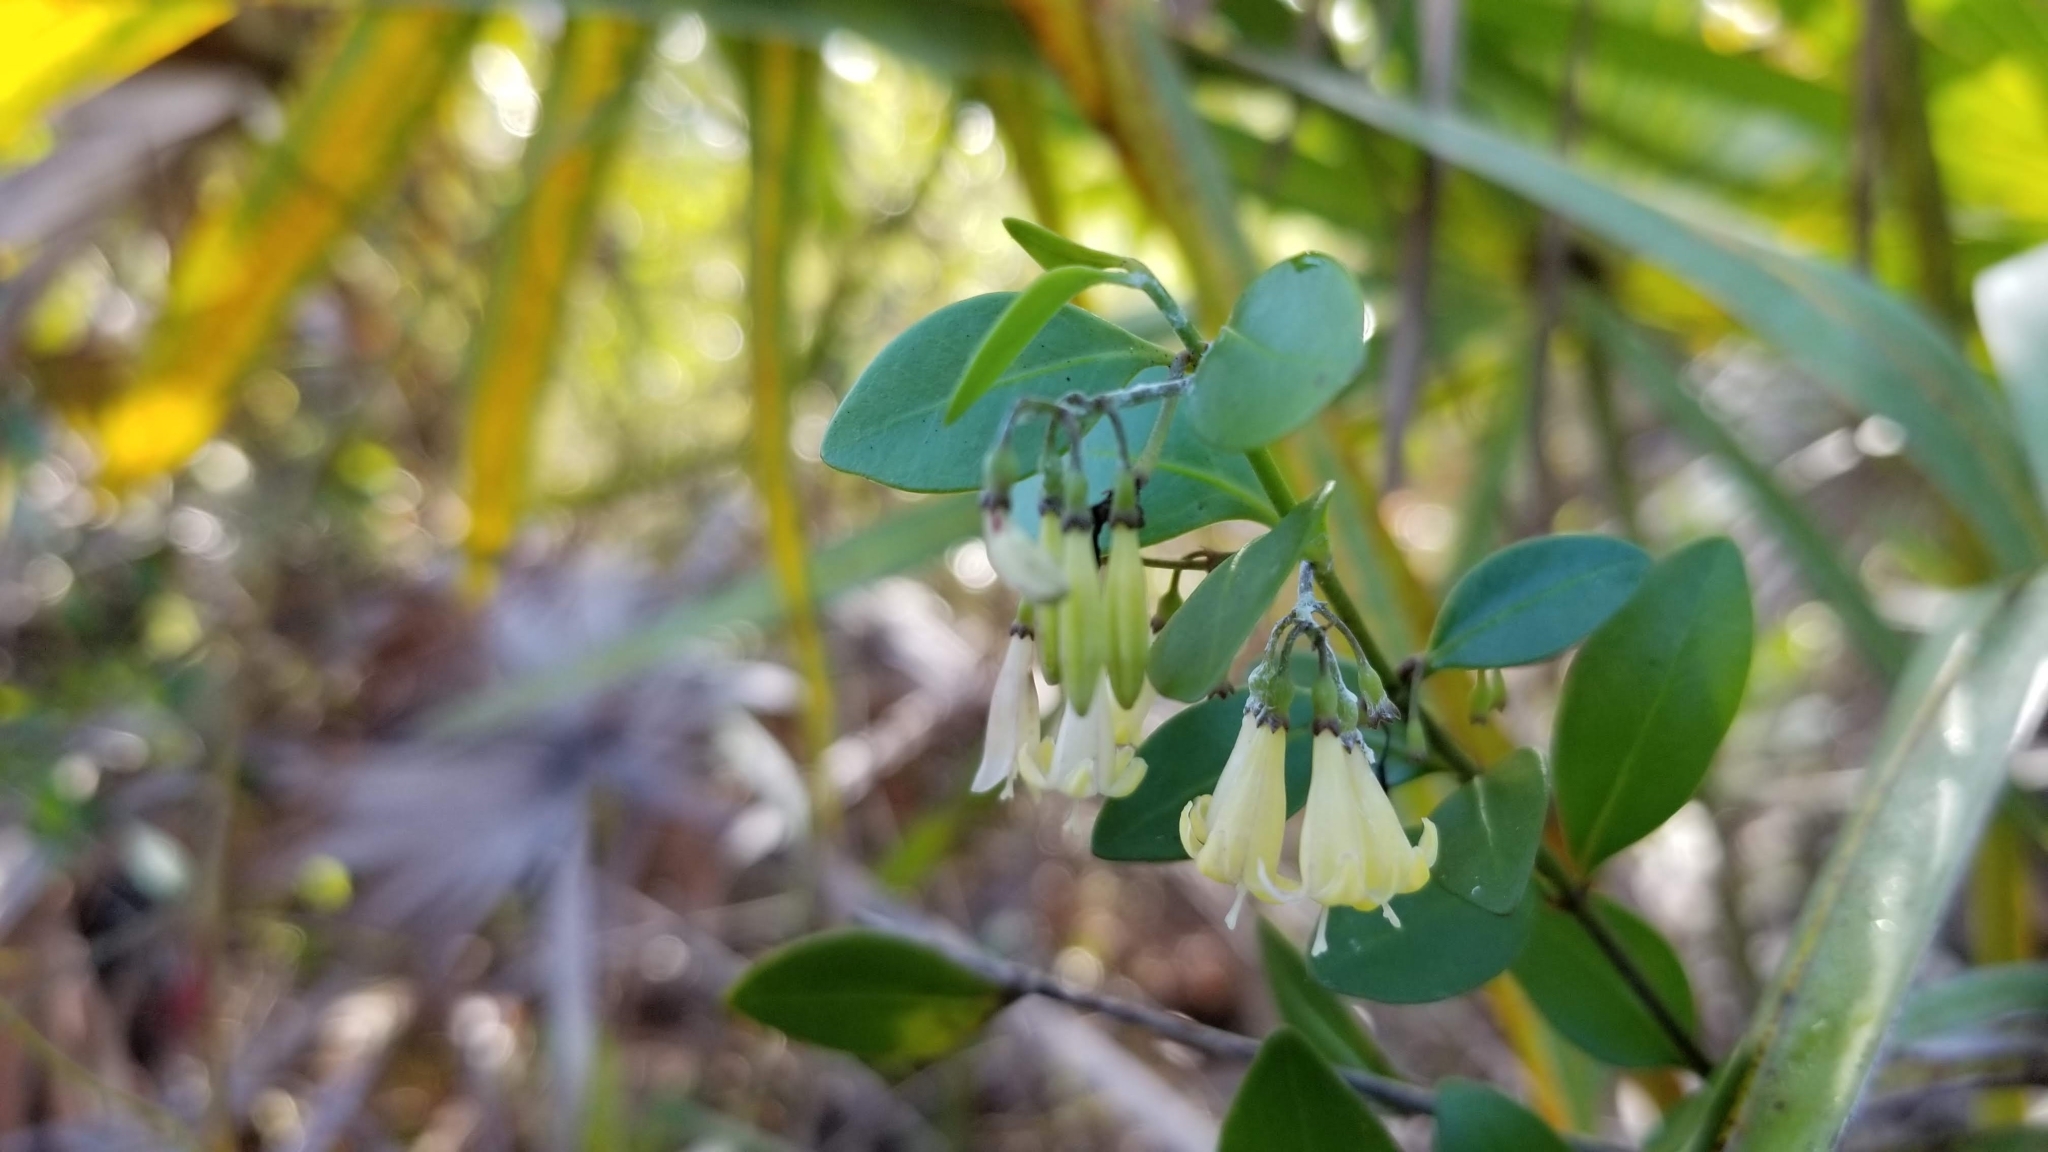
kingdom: Plantae
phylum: Tracheophyta
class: Magnoliopsida
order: Gentianales
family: Rubiaceae
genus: Chiococca
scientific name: Chiococca alba
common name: Snowberry
